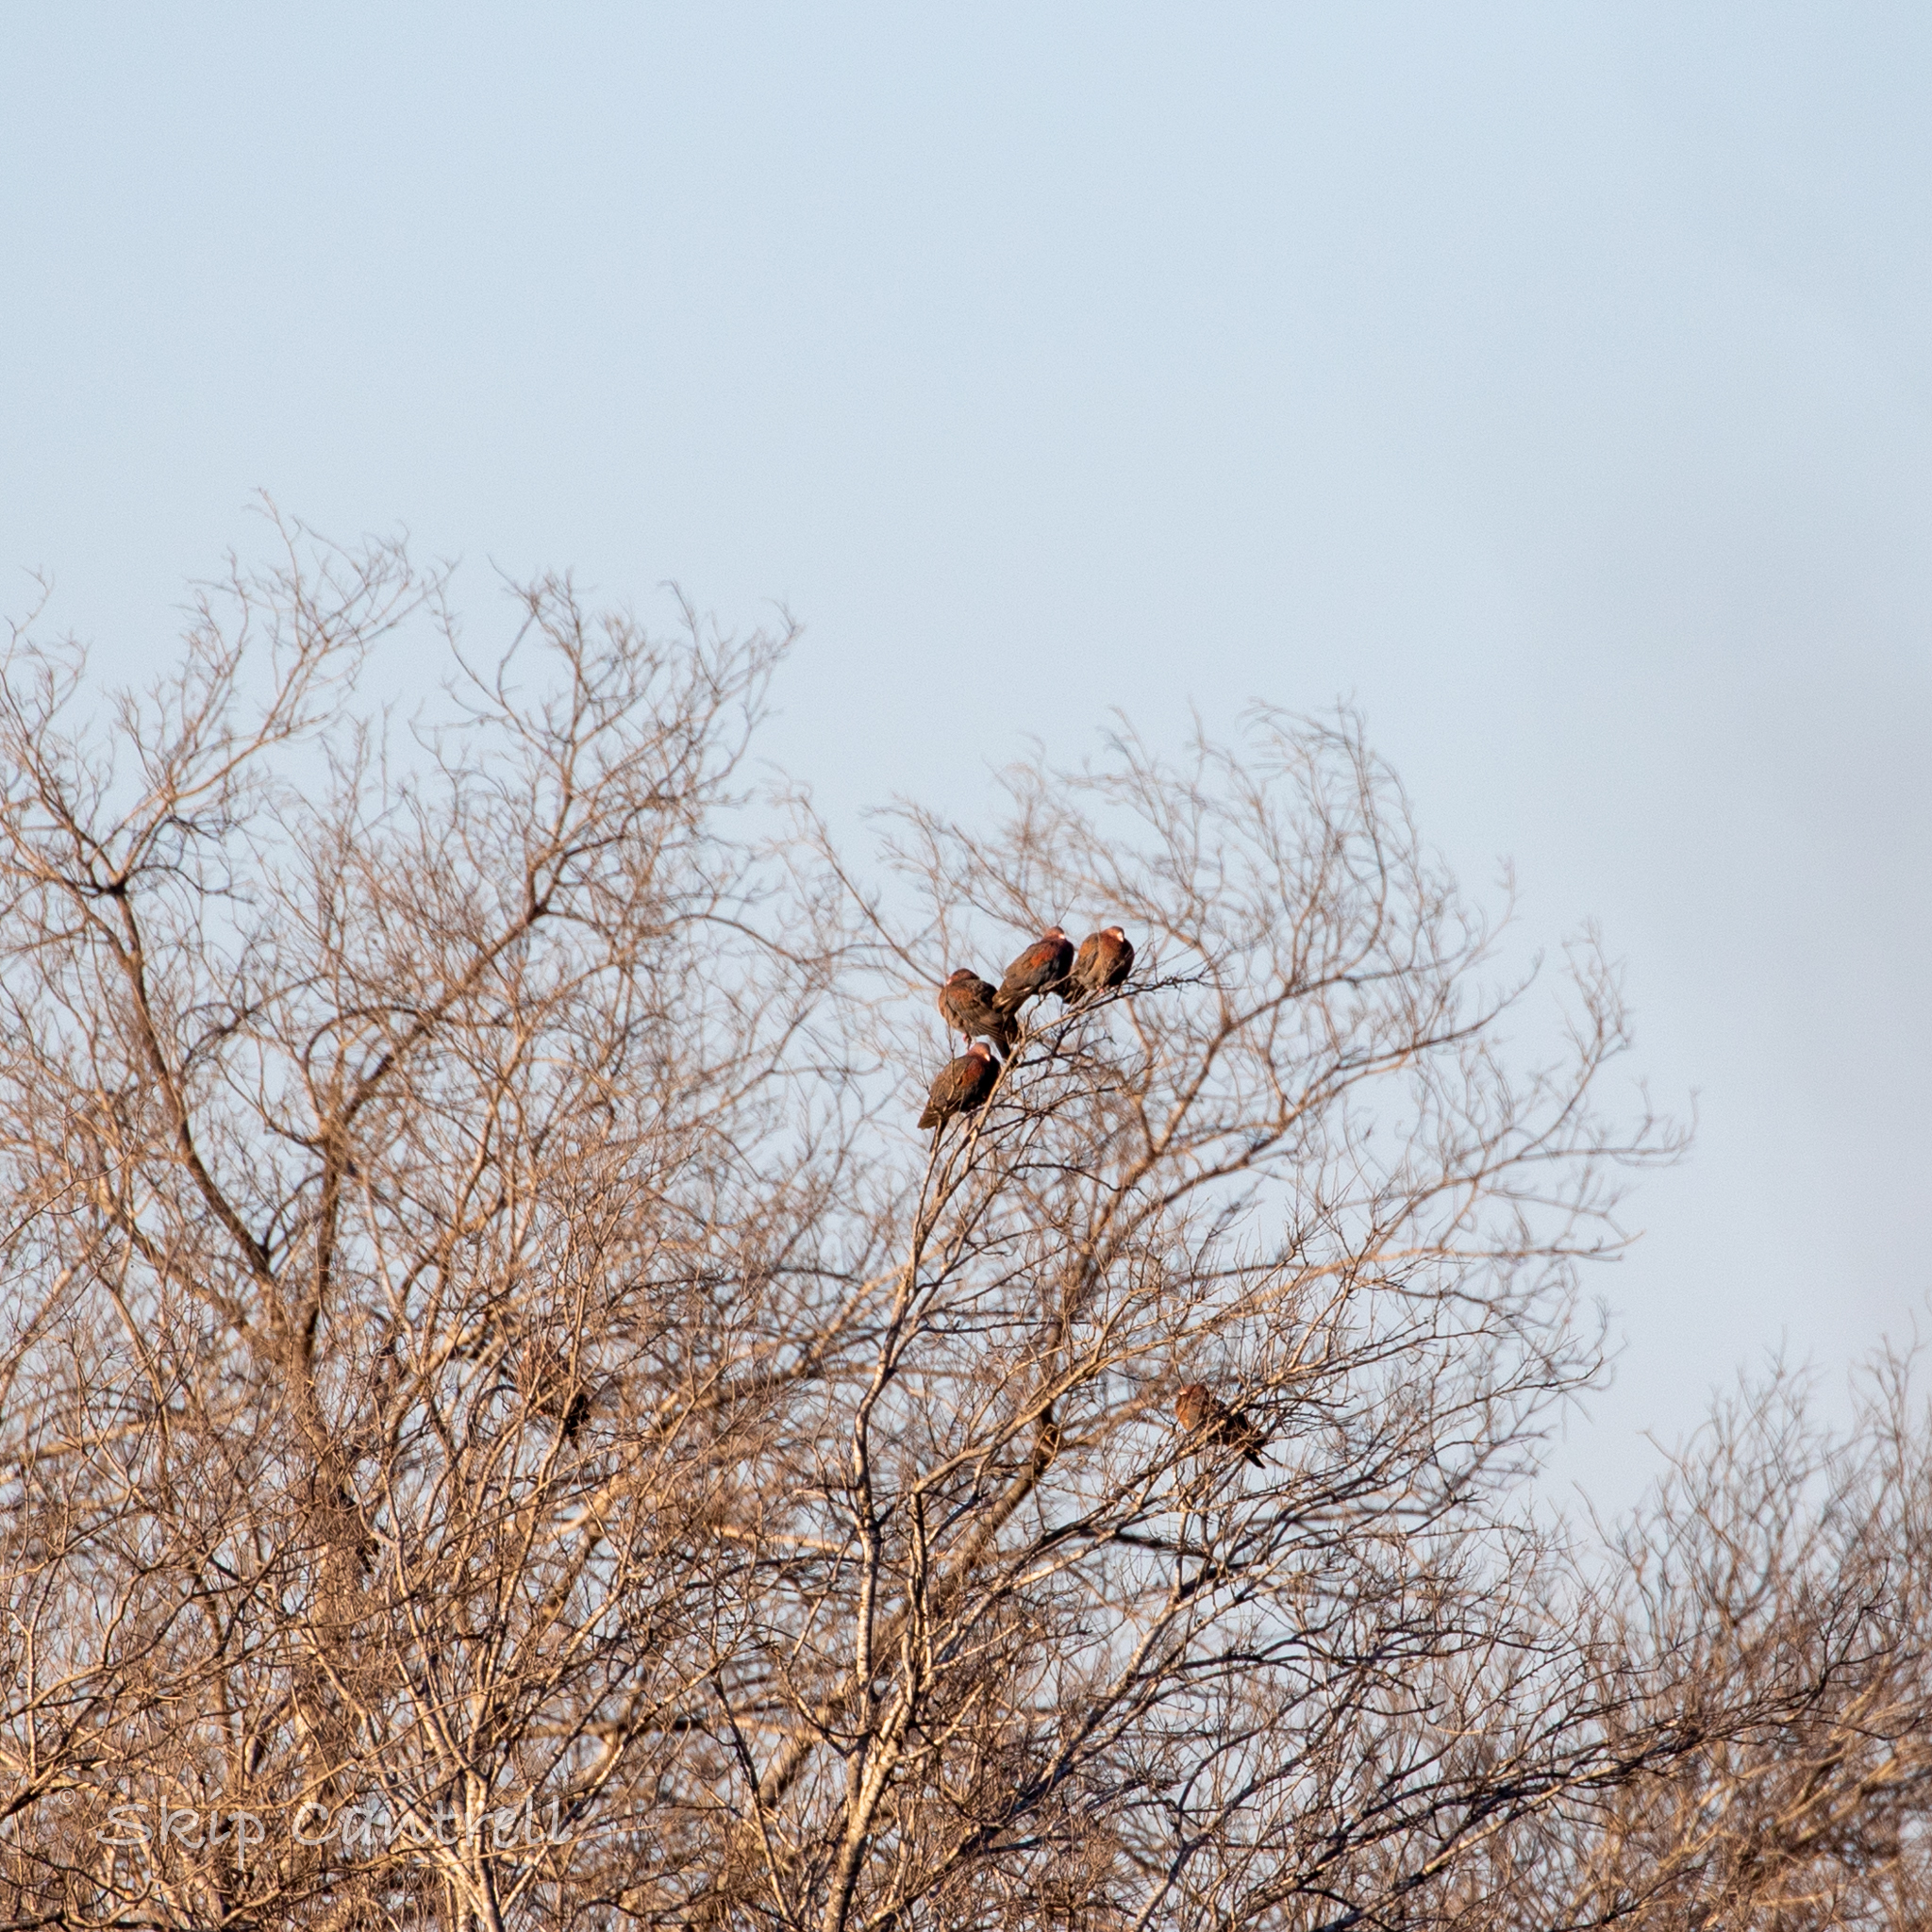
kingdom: Animalia
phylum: Chordata
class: Aves
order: Columbiformes
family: Columbidae
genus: Patagioenas
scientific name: Patagioenas flavirostris
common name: Red-billed pigeon
